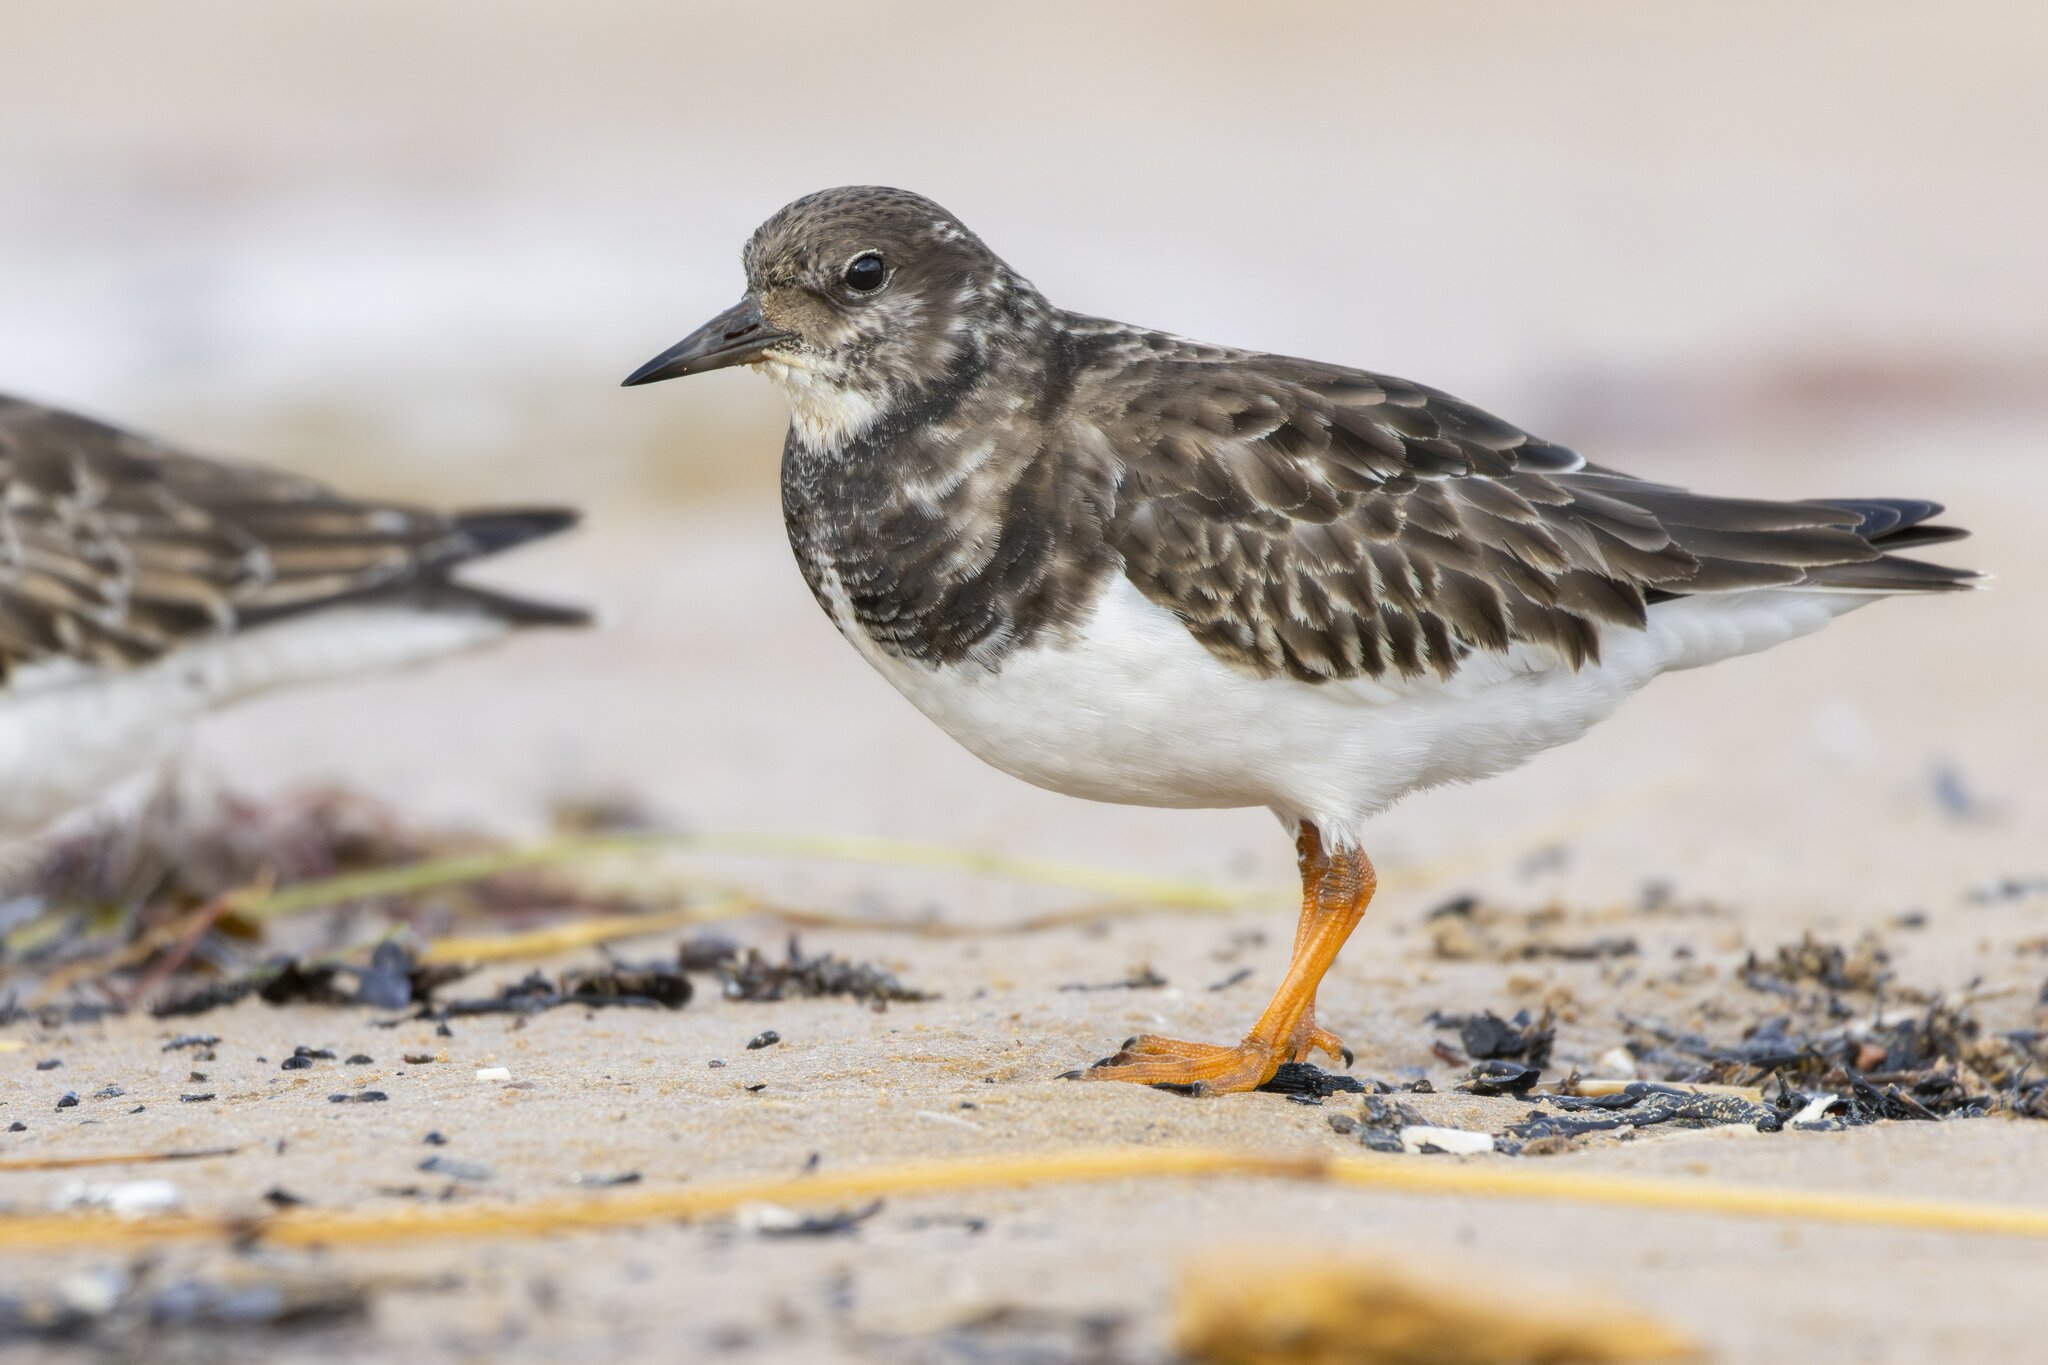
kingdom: Animalia
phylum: Chordata
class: Aves
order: Charadriiformes
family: Scolopacidae
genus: Arenaria
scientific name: Arenaria interpres
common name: Ruddy turnstone
